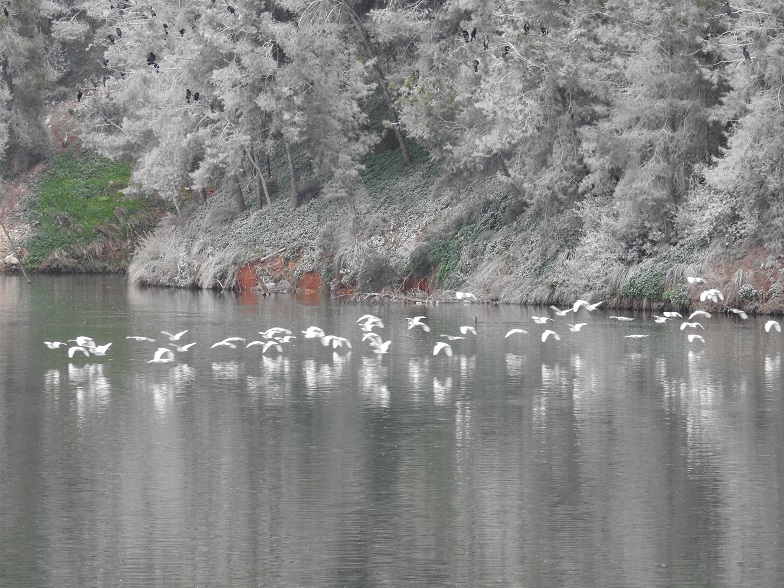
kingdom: Animalia
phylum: Chordata
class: Aves
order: Pelecaniformes
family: Ardeidae
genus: Bubulcus
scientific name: Bubulcus ibis
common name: Cattle egret
